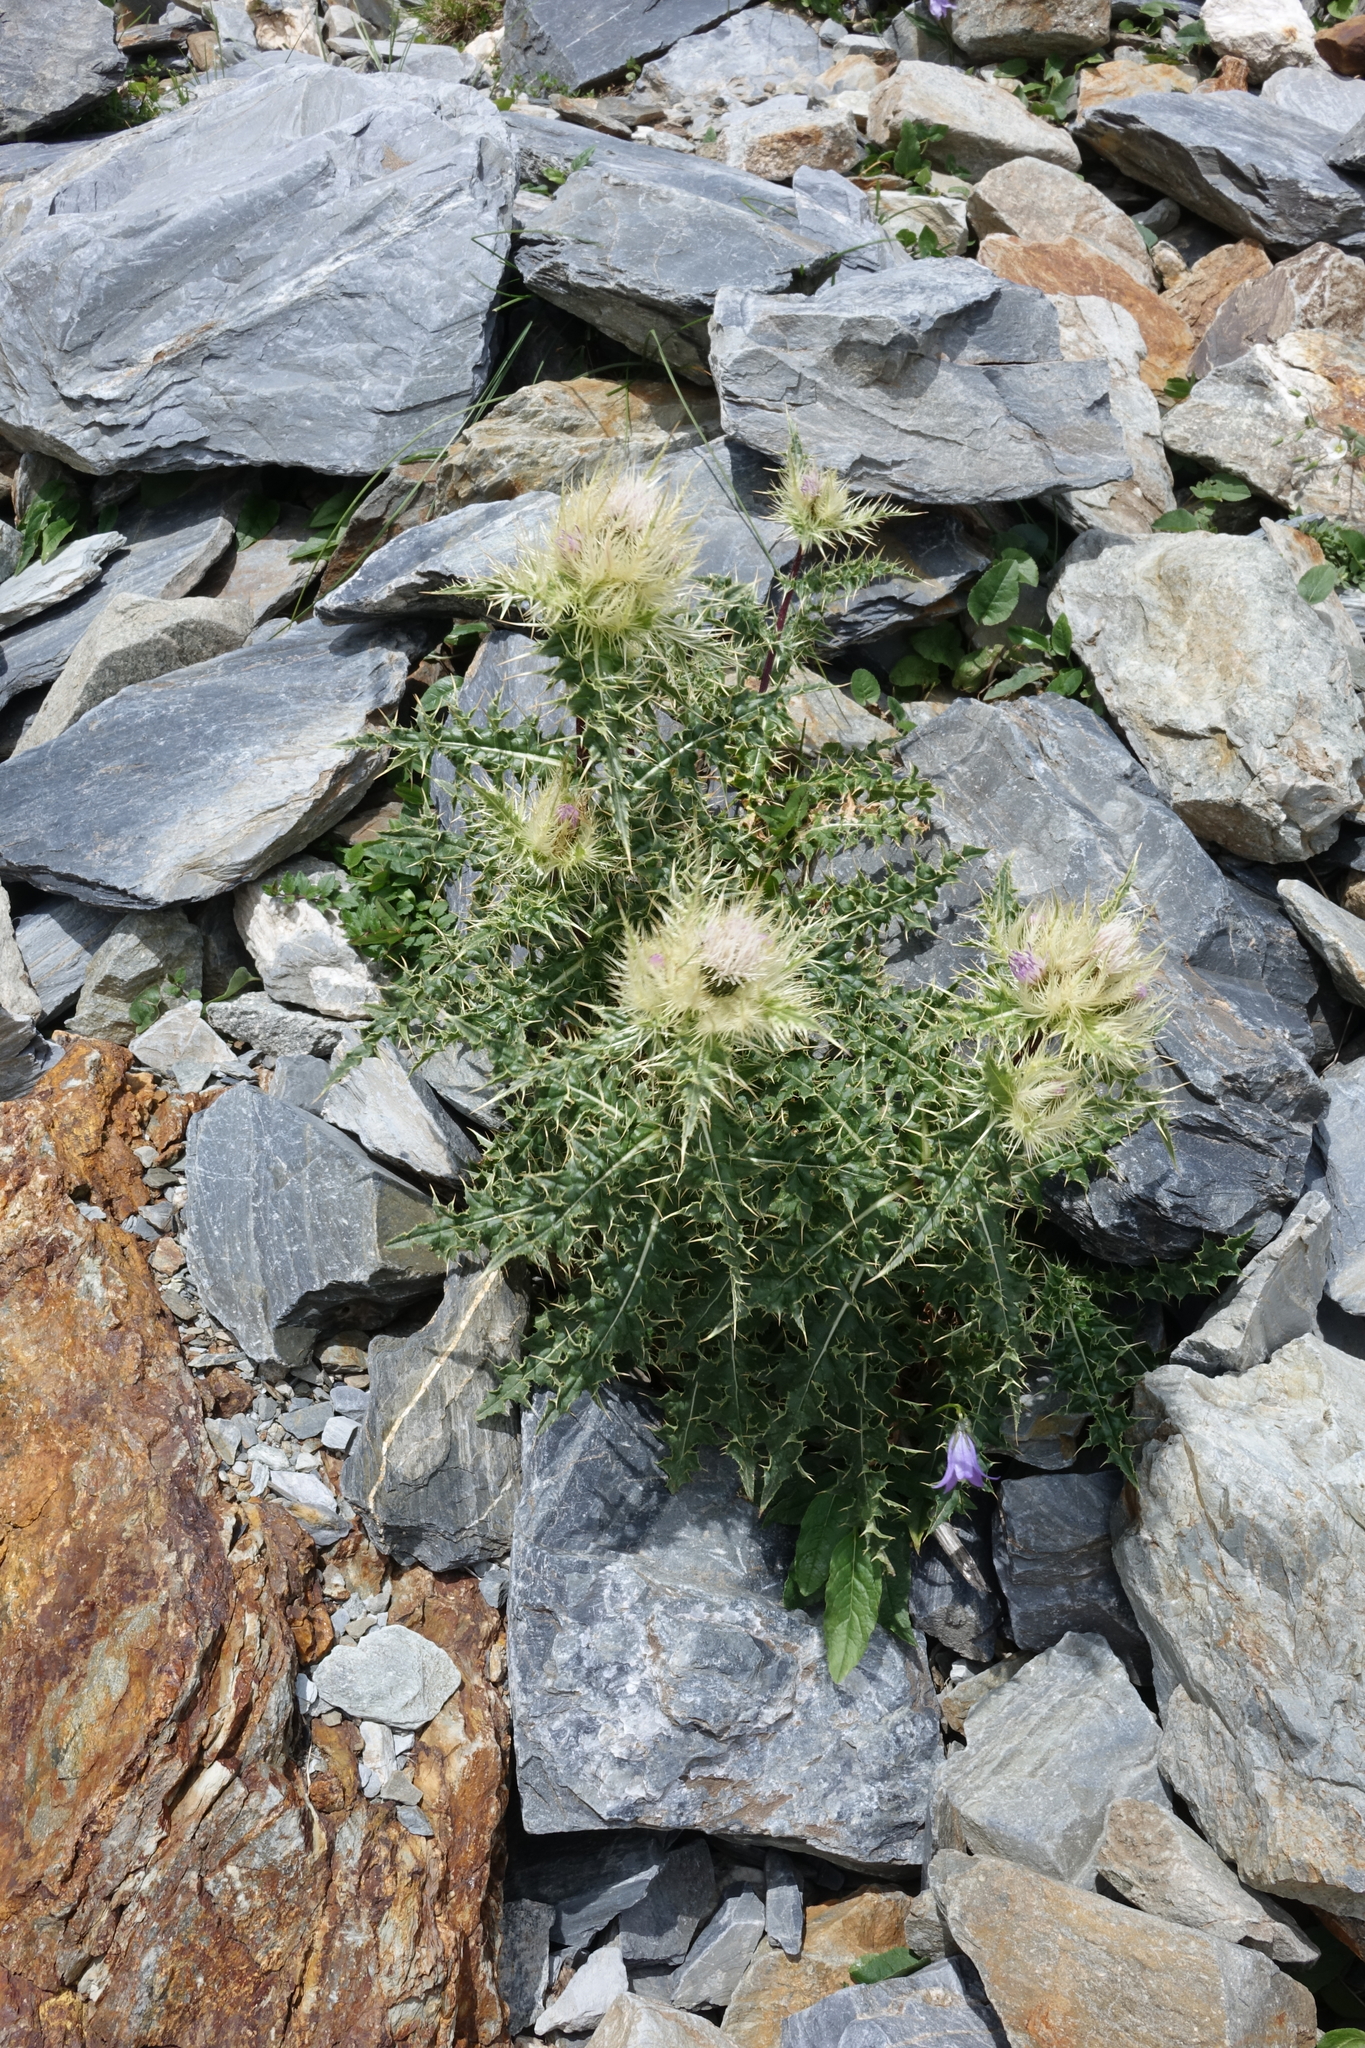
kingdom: Plantae
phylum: Tracheophyta
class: Magnoliopsida
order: Asterales
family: Asteraceae
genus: Cirsium
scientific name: Cirsium obvallatum
